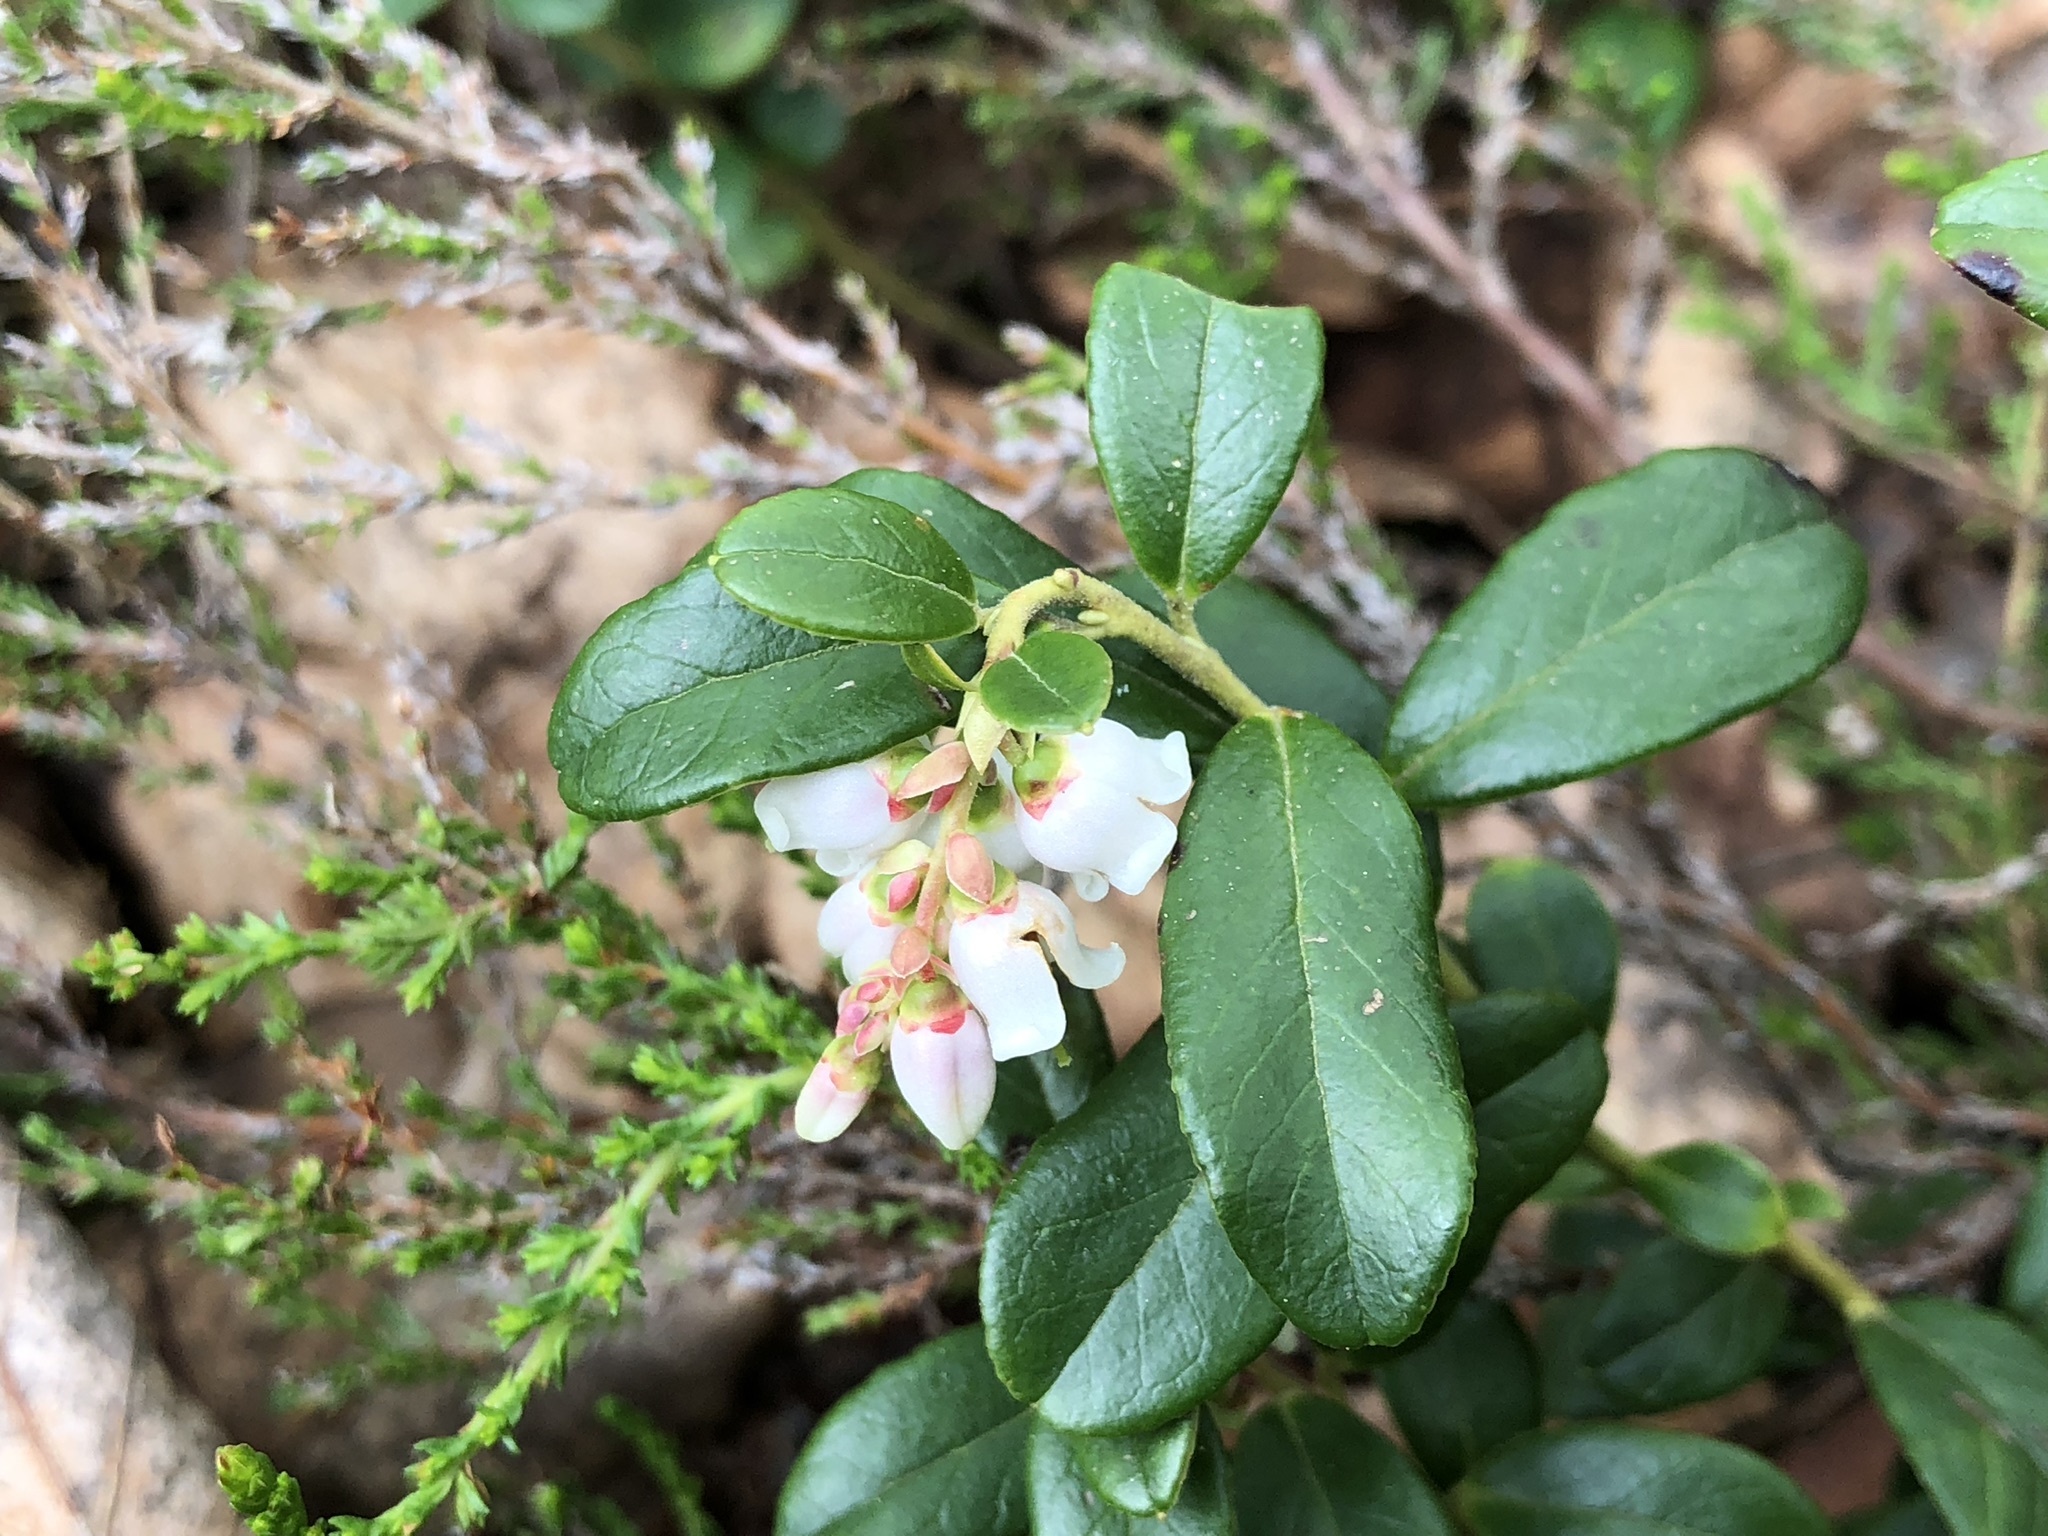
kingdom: Plantae
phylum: Tracheophyta
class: Magnoliopsida
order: Ericales
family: Ericaceae
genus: Vaccinium
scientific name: Vaccinium vitis-idaea
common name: Cowberry
